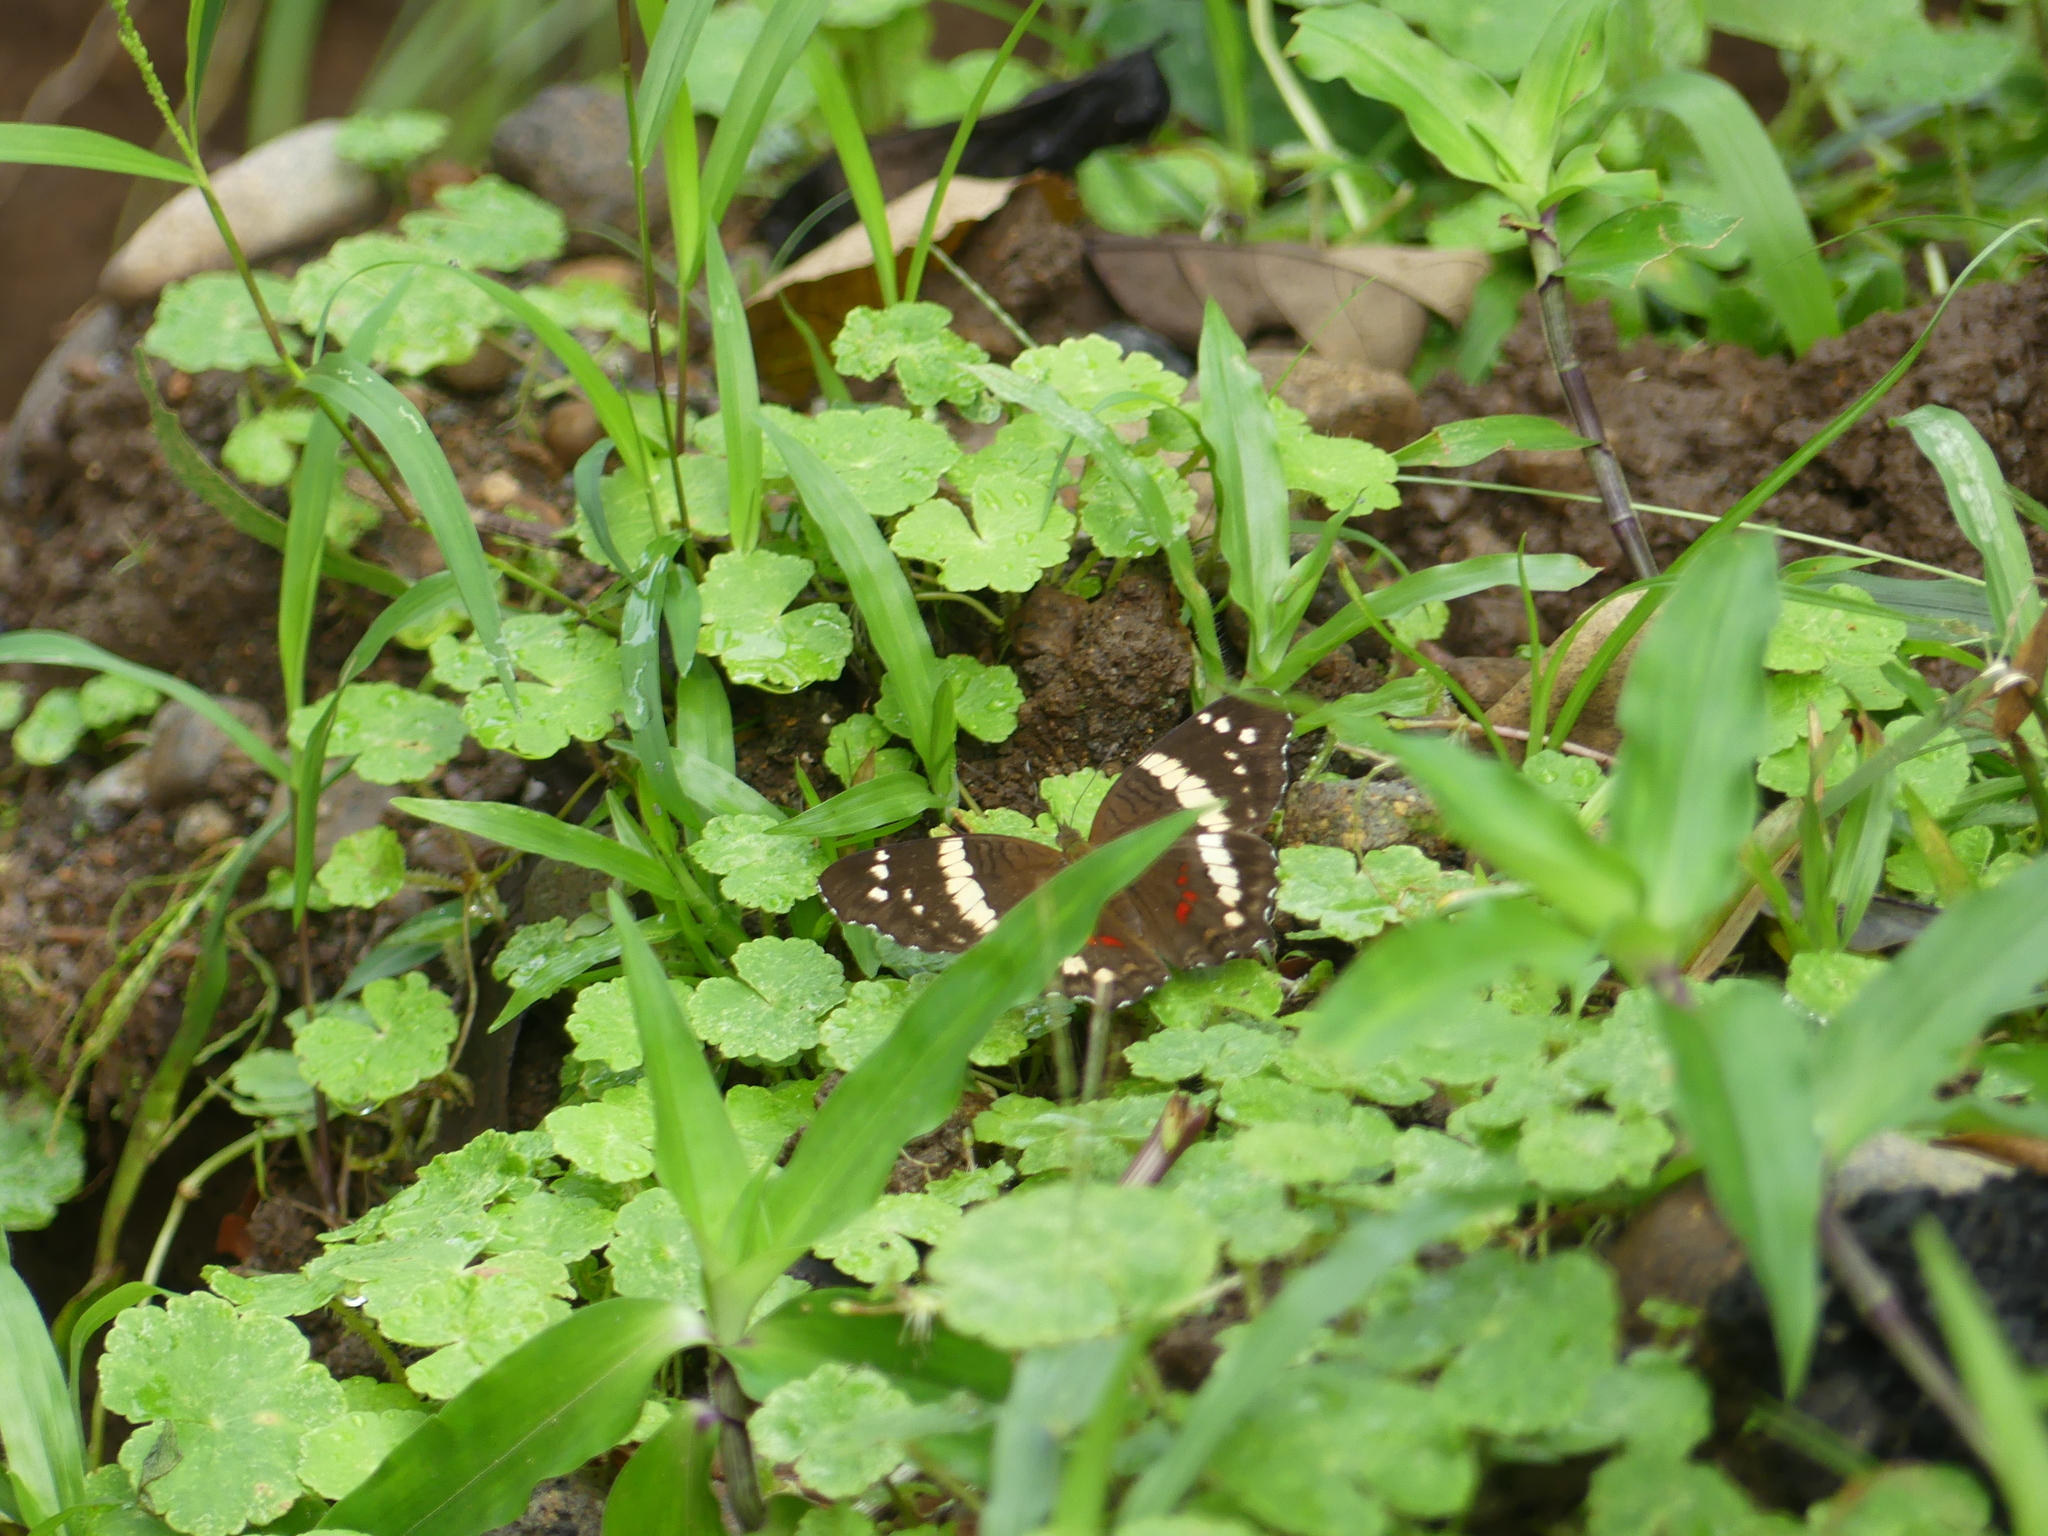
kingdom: Animalia
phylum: Arthropoda
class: Insecta
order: Lepidoptera
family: Nymphalidae
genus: Anartia
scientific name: Anartia fatima
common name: Banded peacock
